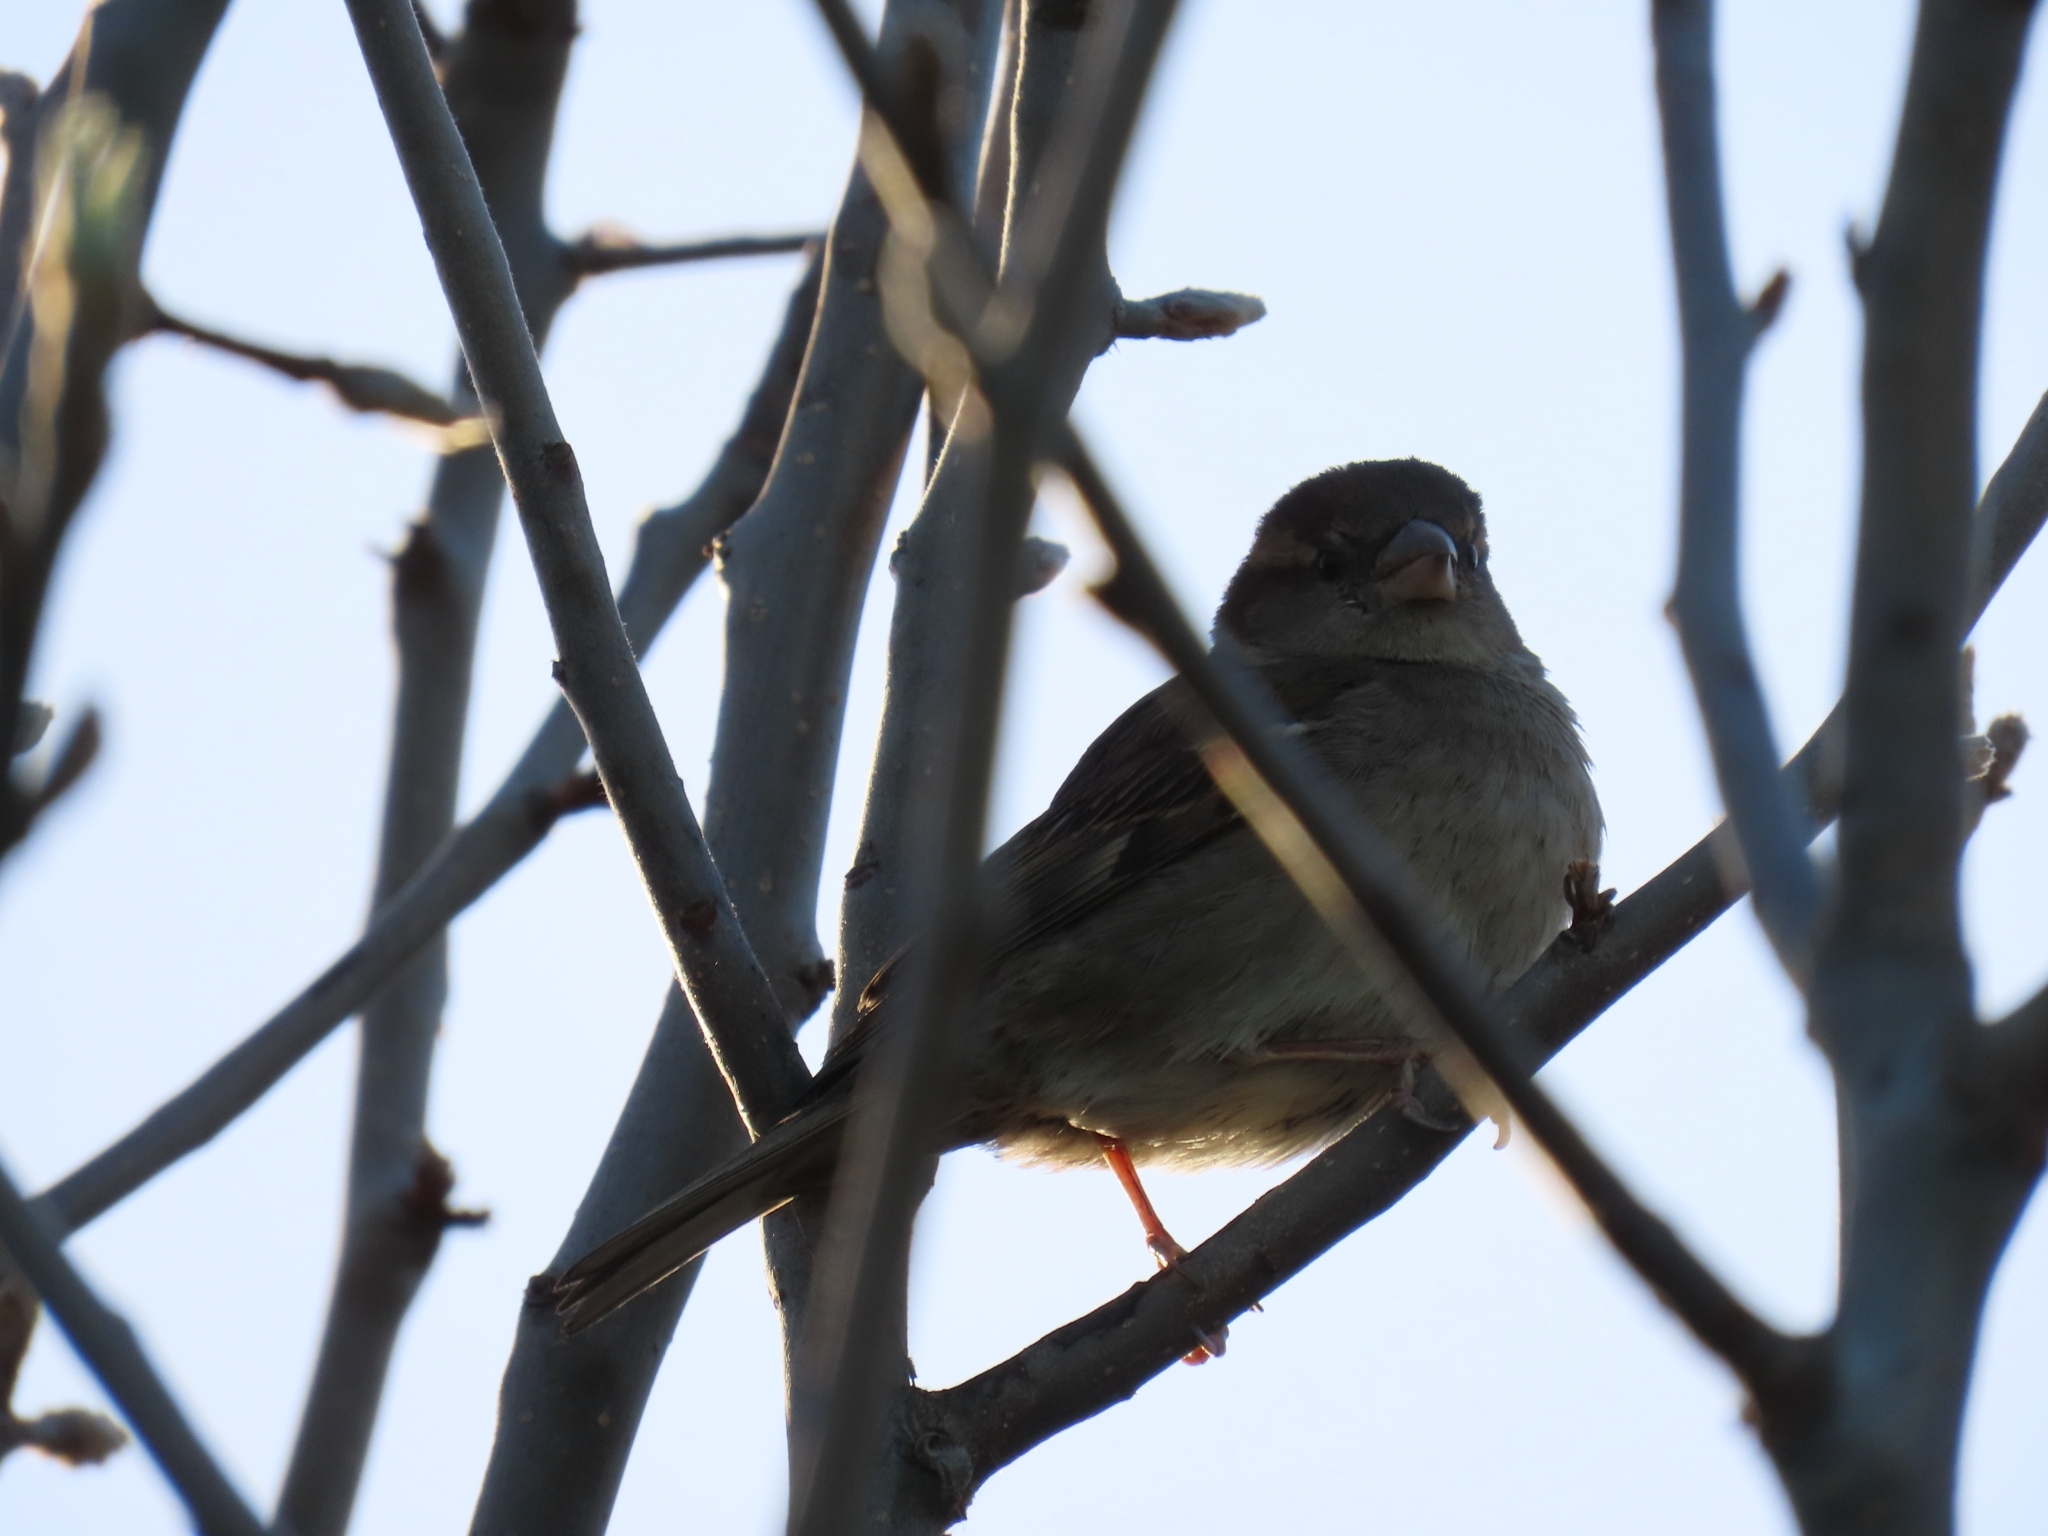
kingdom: Animalia
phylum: Chordata
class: Aves
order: Passeriformes
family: Passeridae
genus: Passer
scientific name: Passer domesticus
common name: House sparrow
